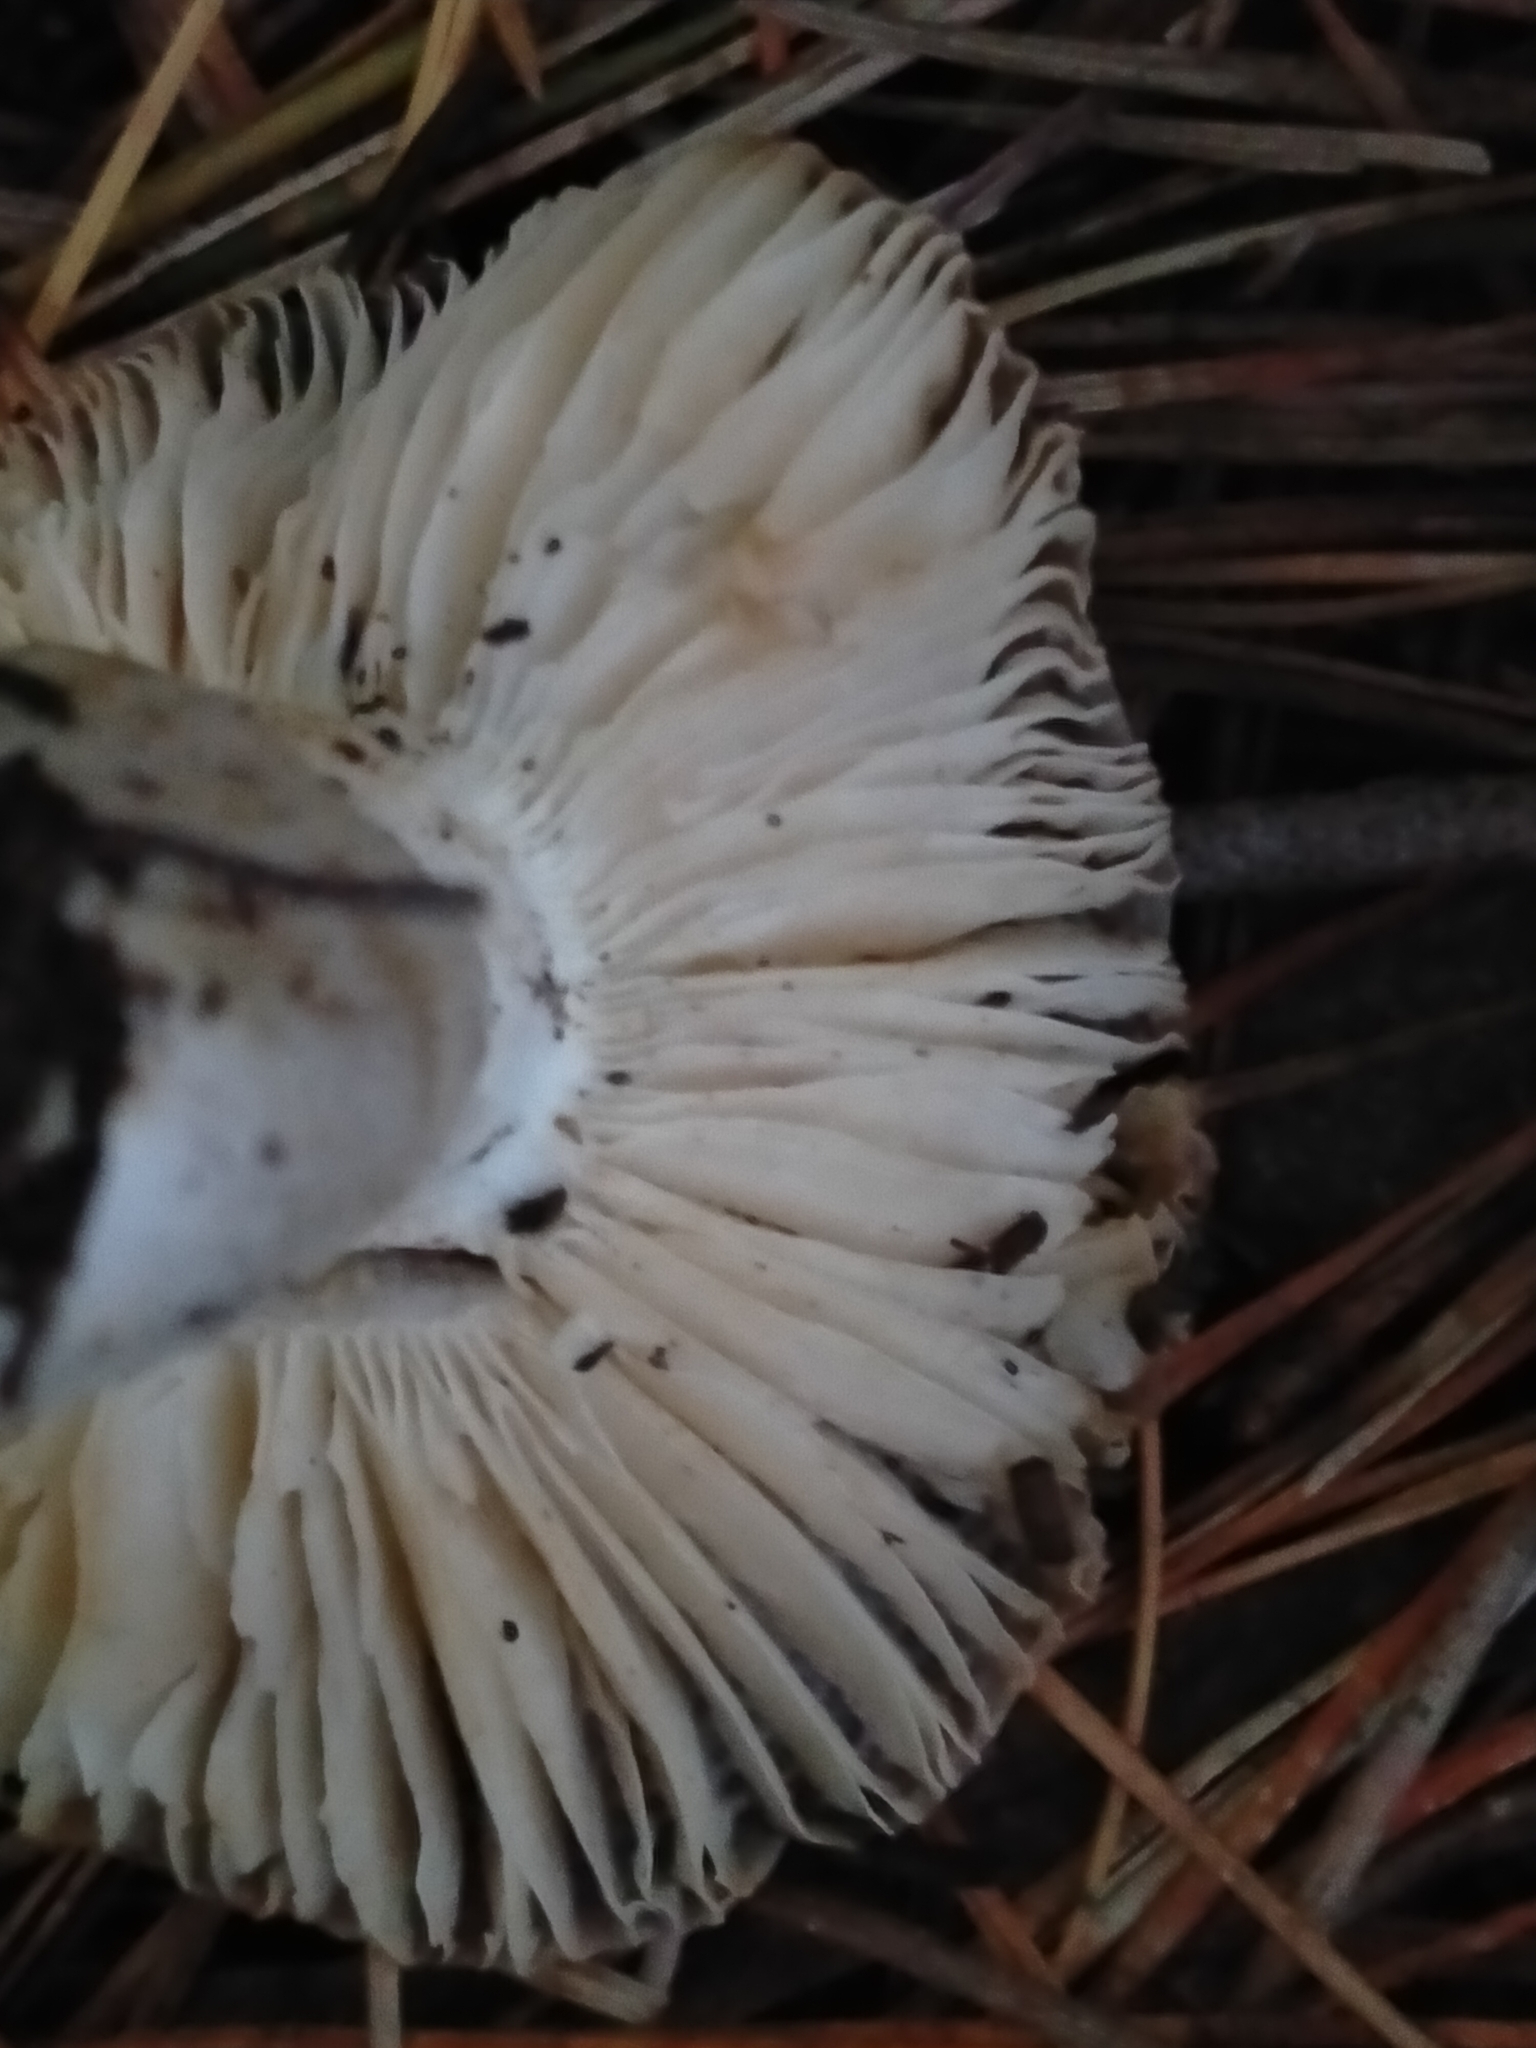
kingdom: Fungi
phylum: Basidiomycota
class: Agaricomycetes
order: Russulales
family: Russulaceae
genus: Russula
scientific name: Russula amoenolens
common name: Camembert brittlegill
